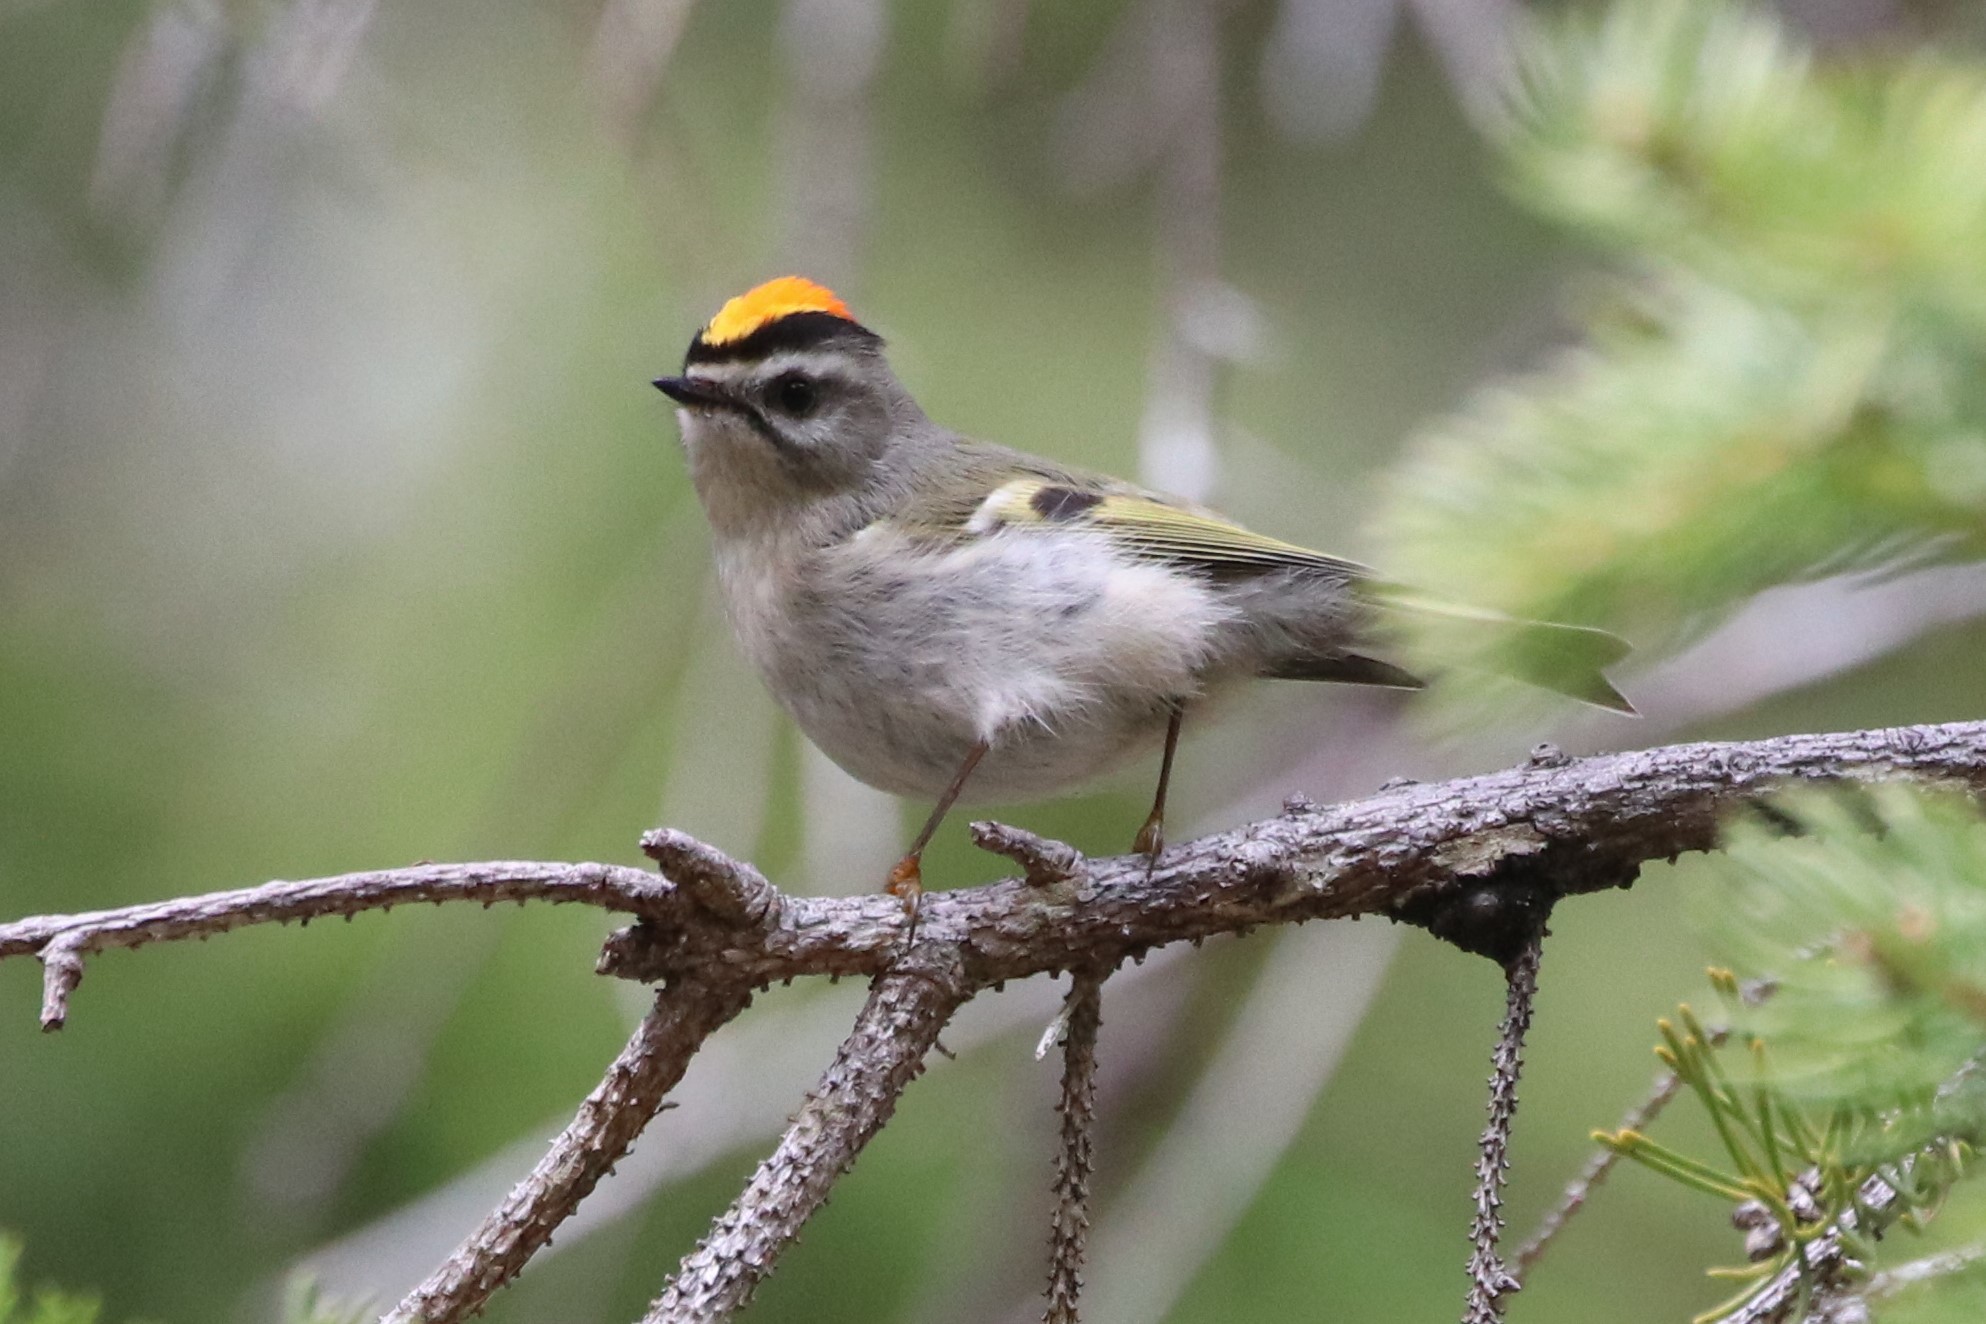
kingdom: Animalia
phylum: Chordata
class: Aves
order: Passeriformes
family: Regulidae
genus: Regulus
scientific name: Regulus satrapa
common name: Golden-crowned kinglet
